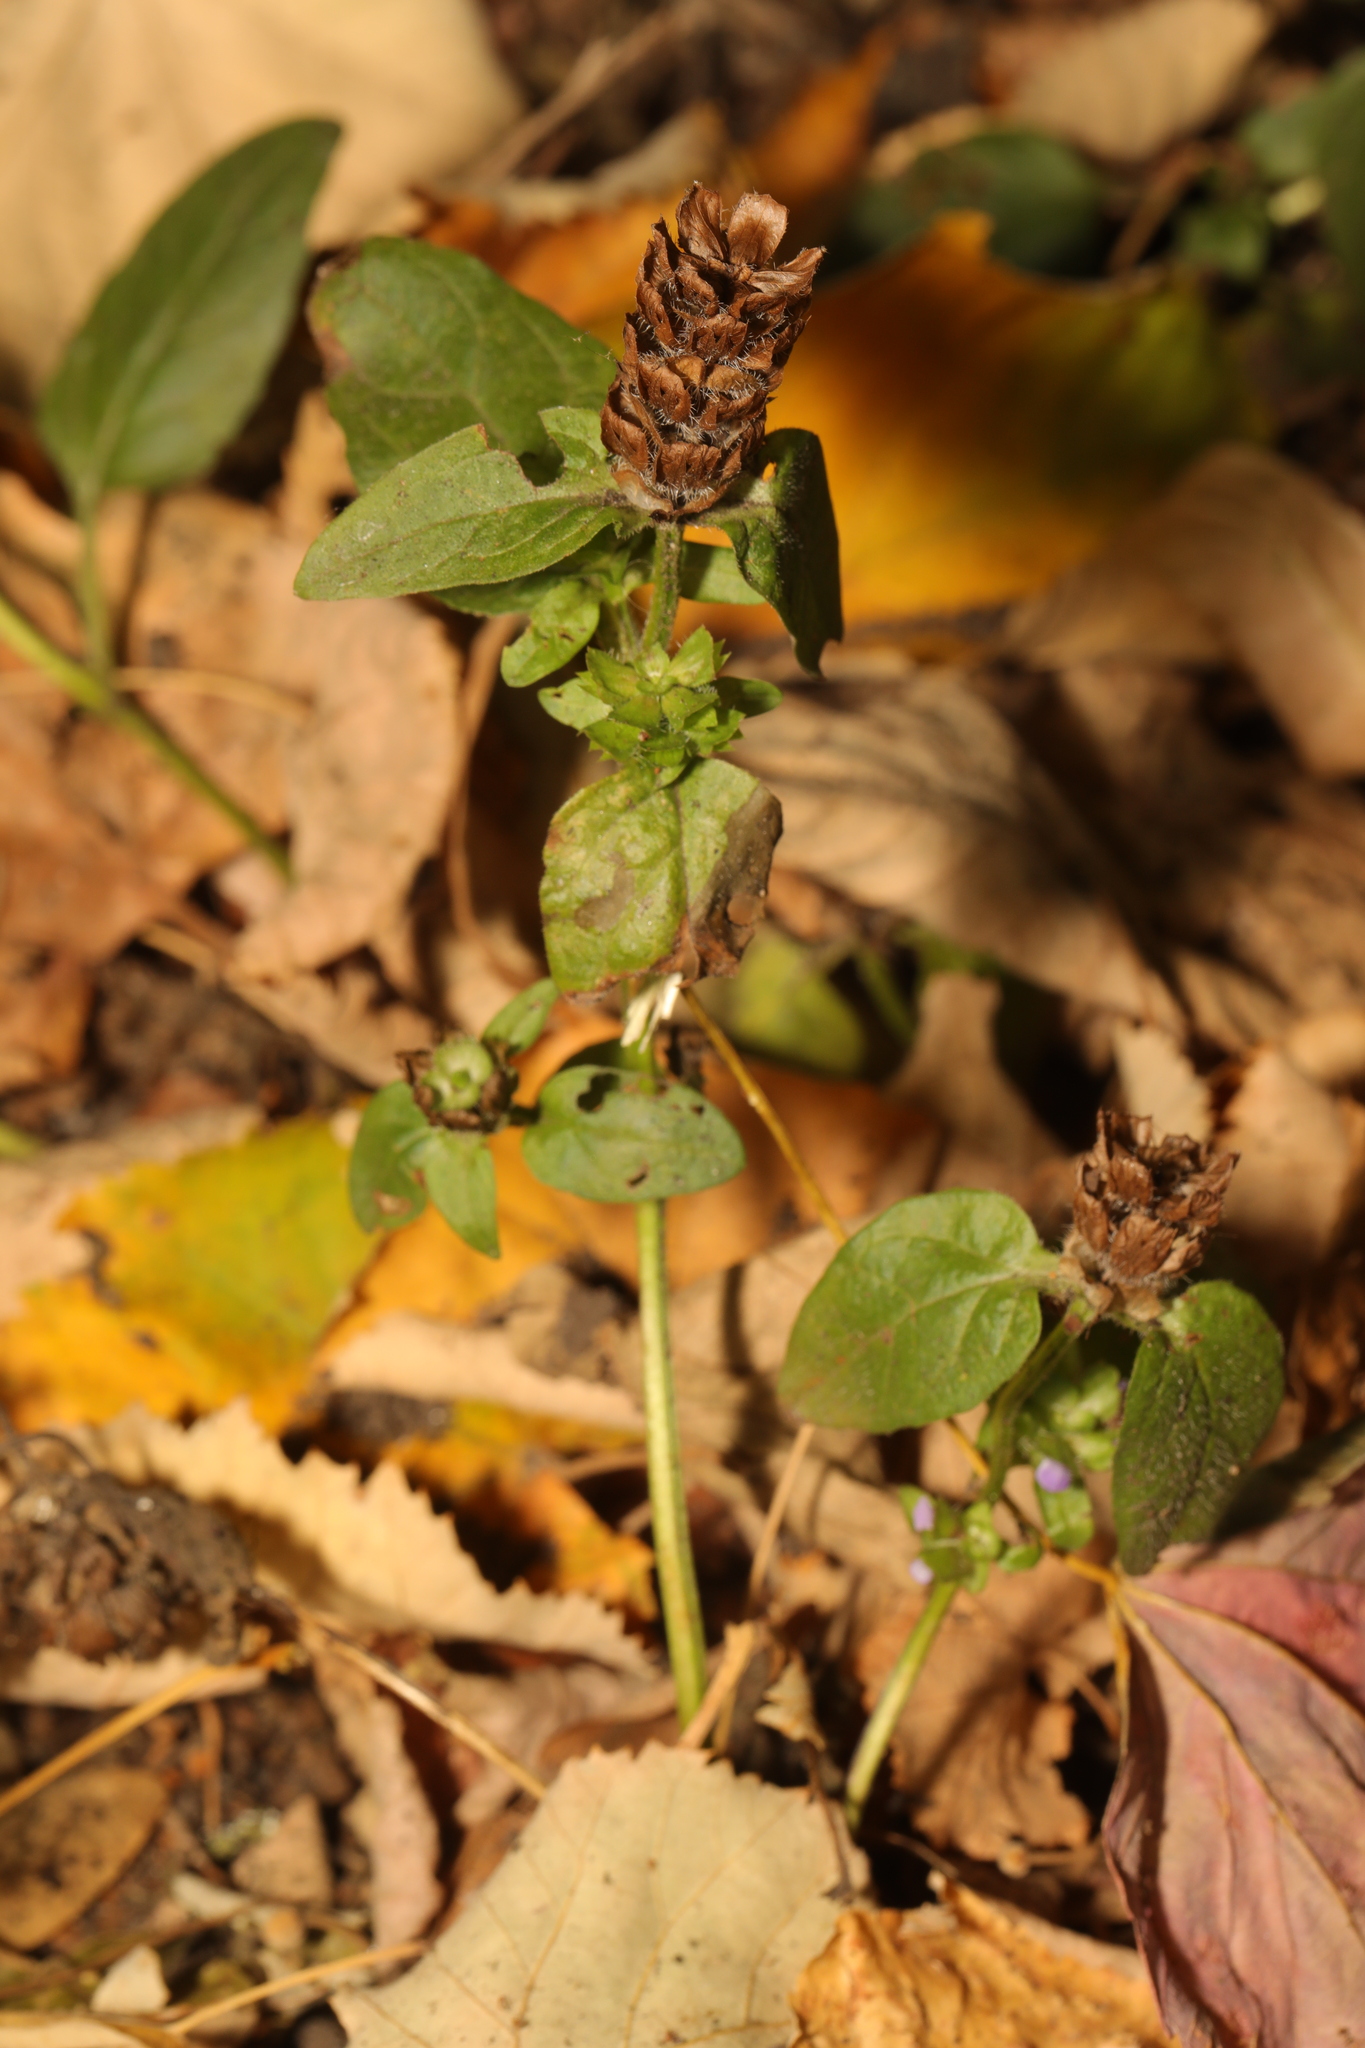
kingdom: Plantae
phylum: Tracheophyta
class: Magnoliopsida
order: Lamiales
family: Lamiaceae
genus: Prunella
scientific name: Prunella vulgaris
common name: Heal-all
